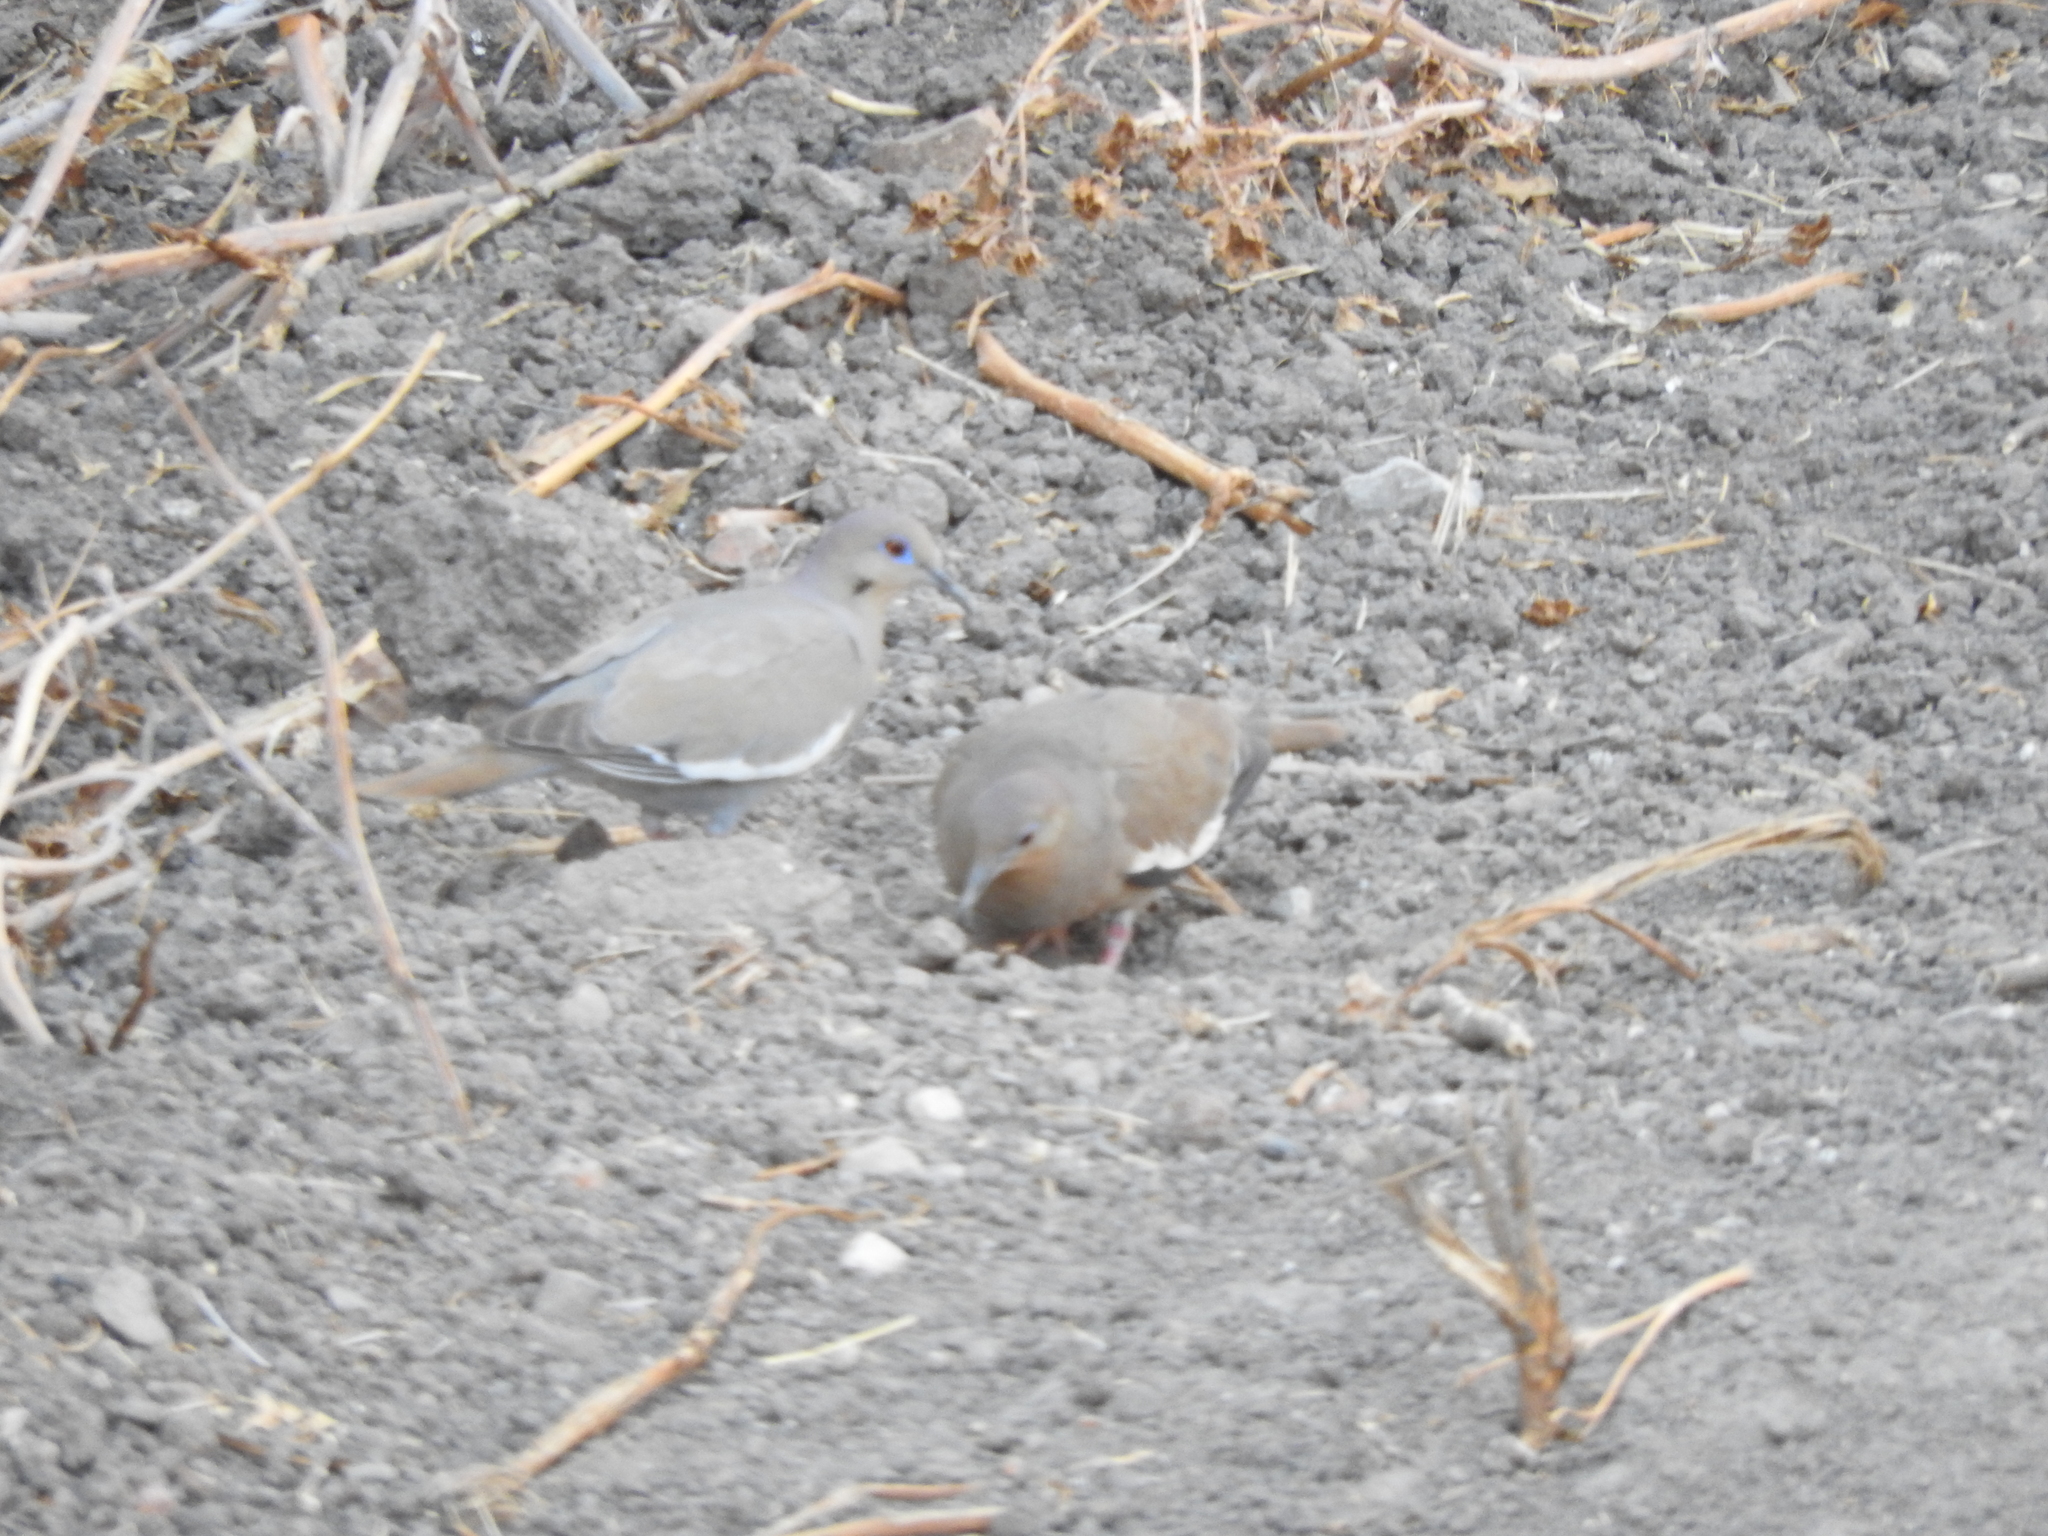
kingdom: Animalia
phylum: Chordata
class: Aves
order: Columbiformes
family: Columbidae
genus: Zenaida
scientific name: Zenaida asiatica
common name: White-winged dove
